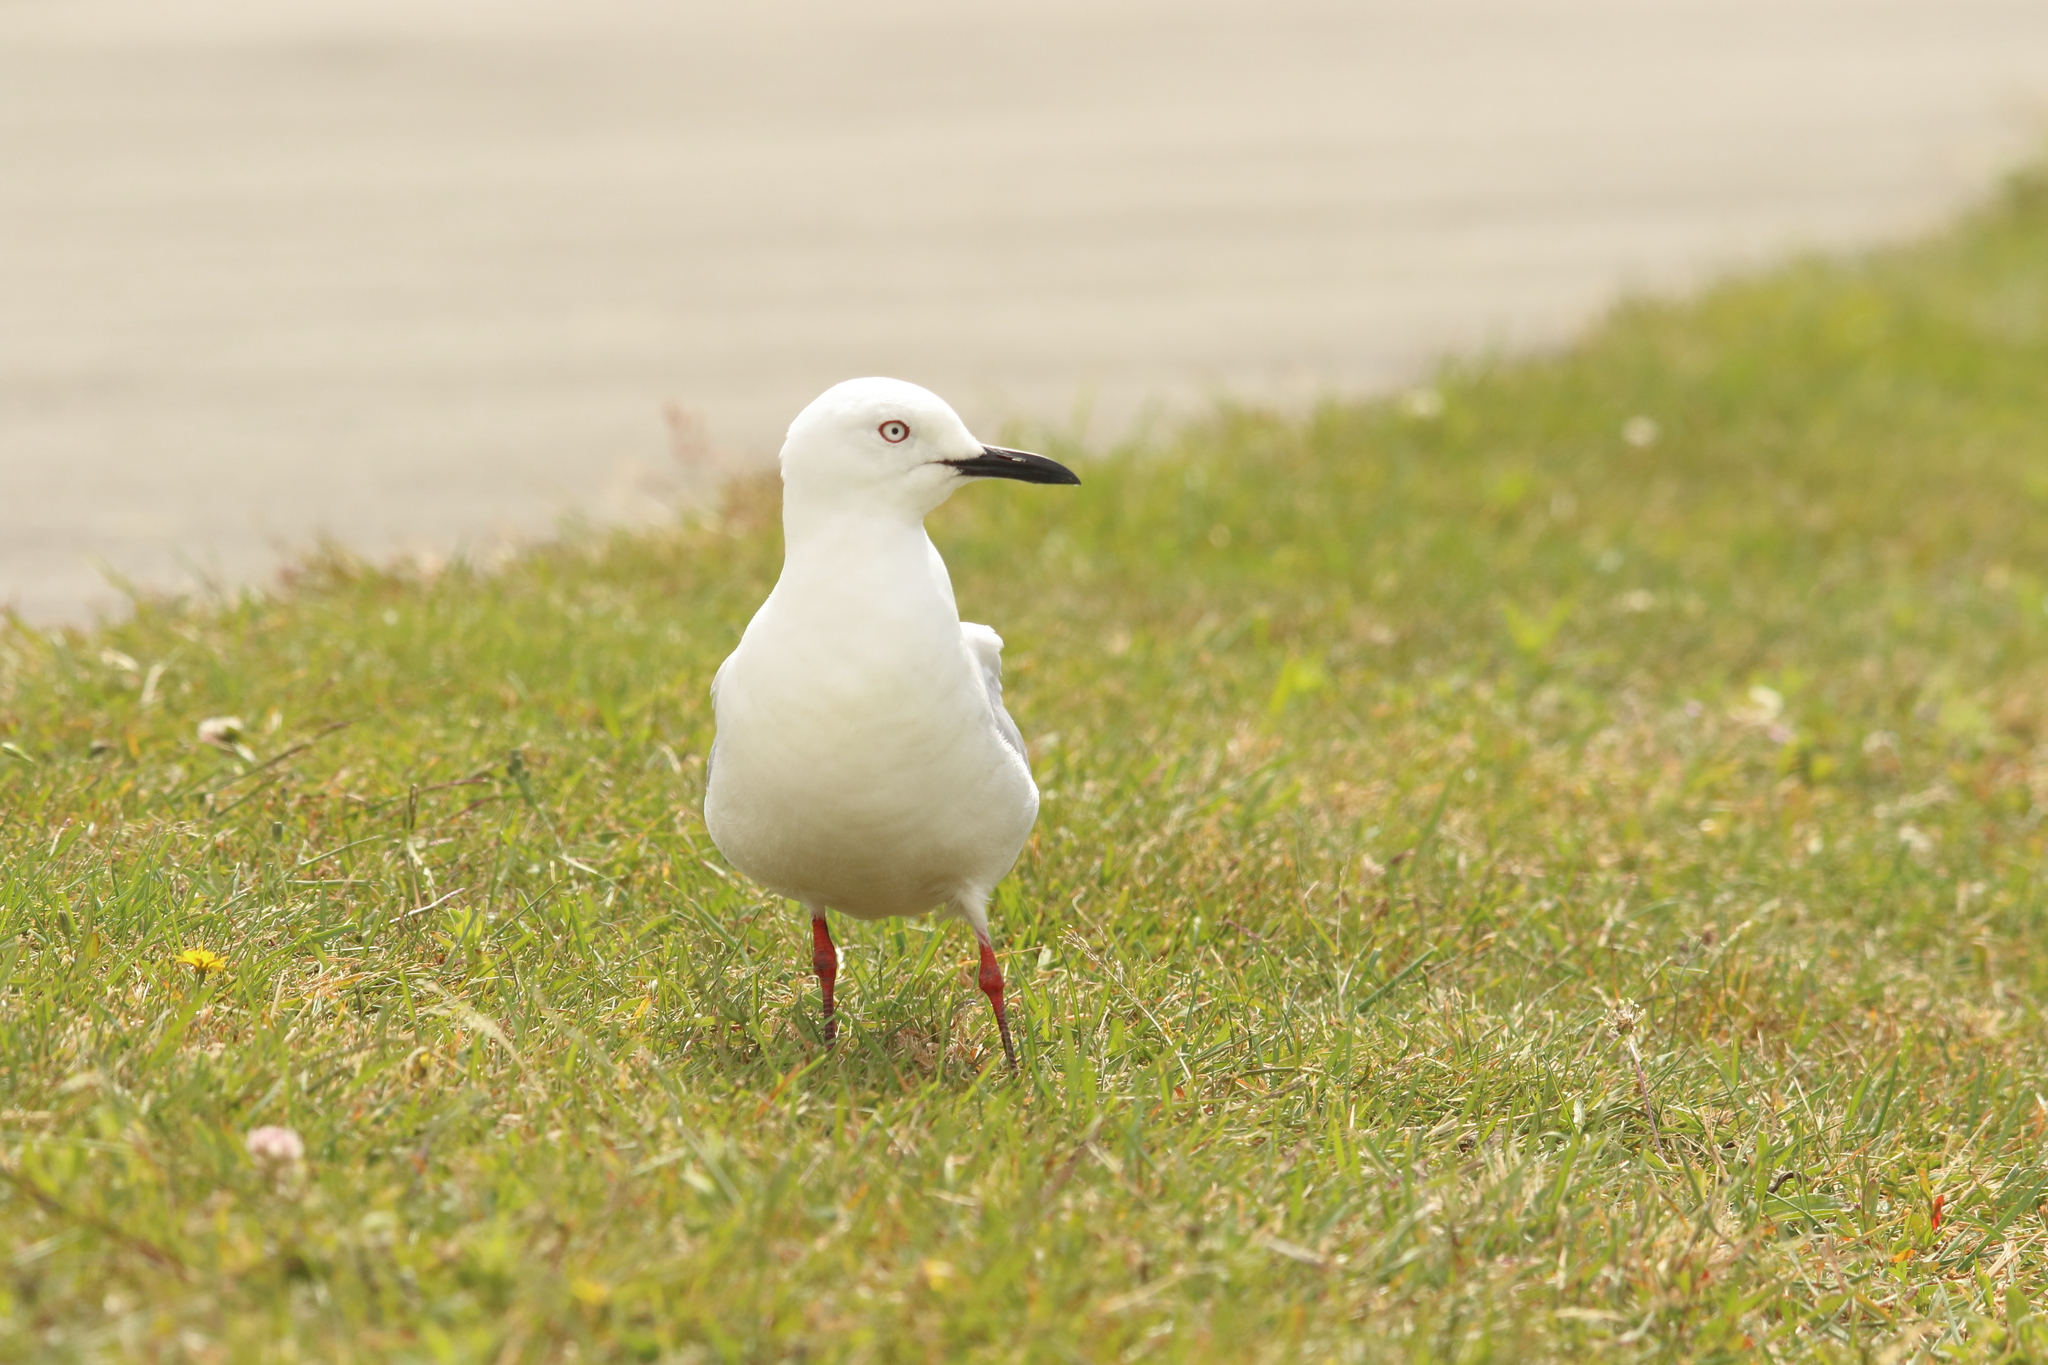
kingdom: Animalia
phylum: Chordata
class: Aves
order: Charadriiformes
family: Laridae
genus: Chroicocephalus
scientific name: Chroicocephalus bulleri
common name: Black-billed gull
